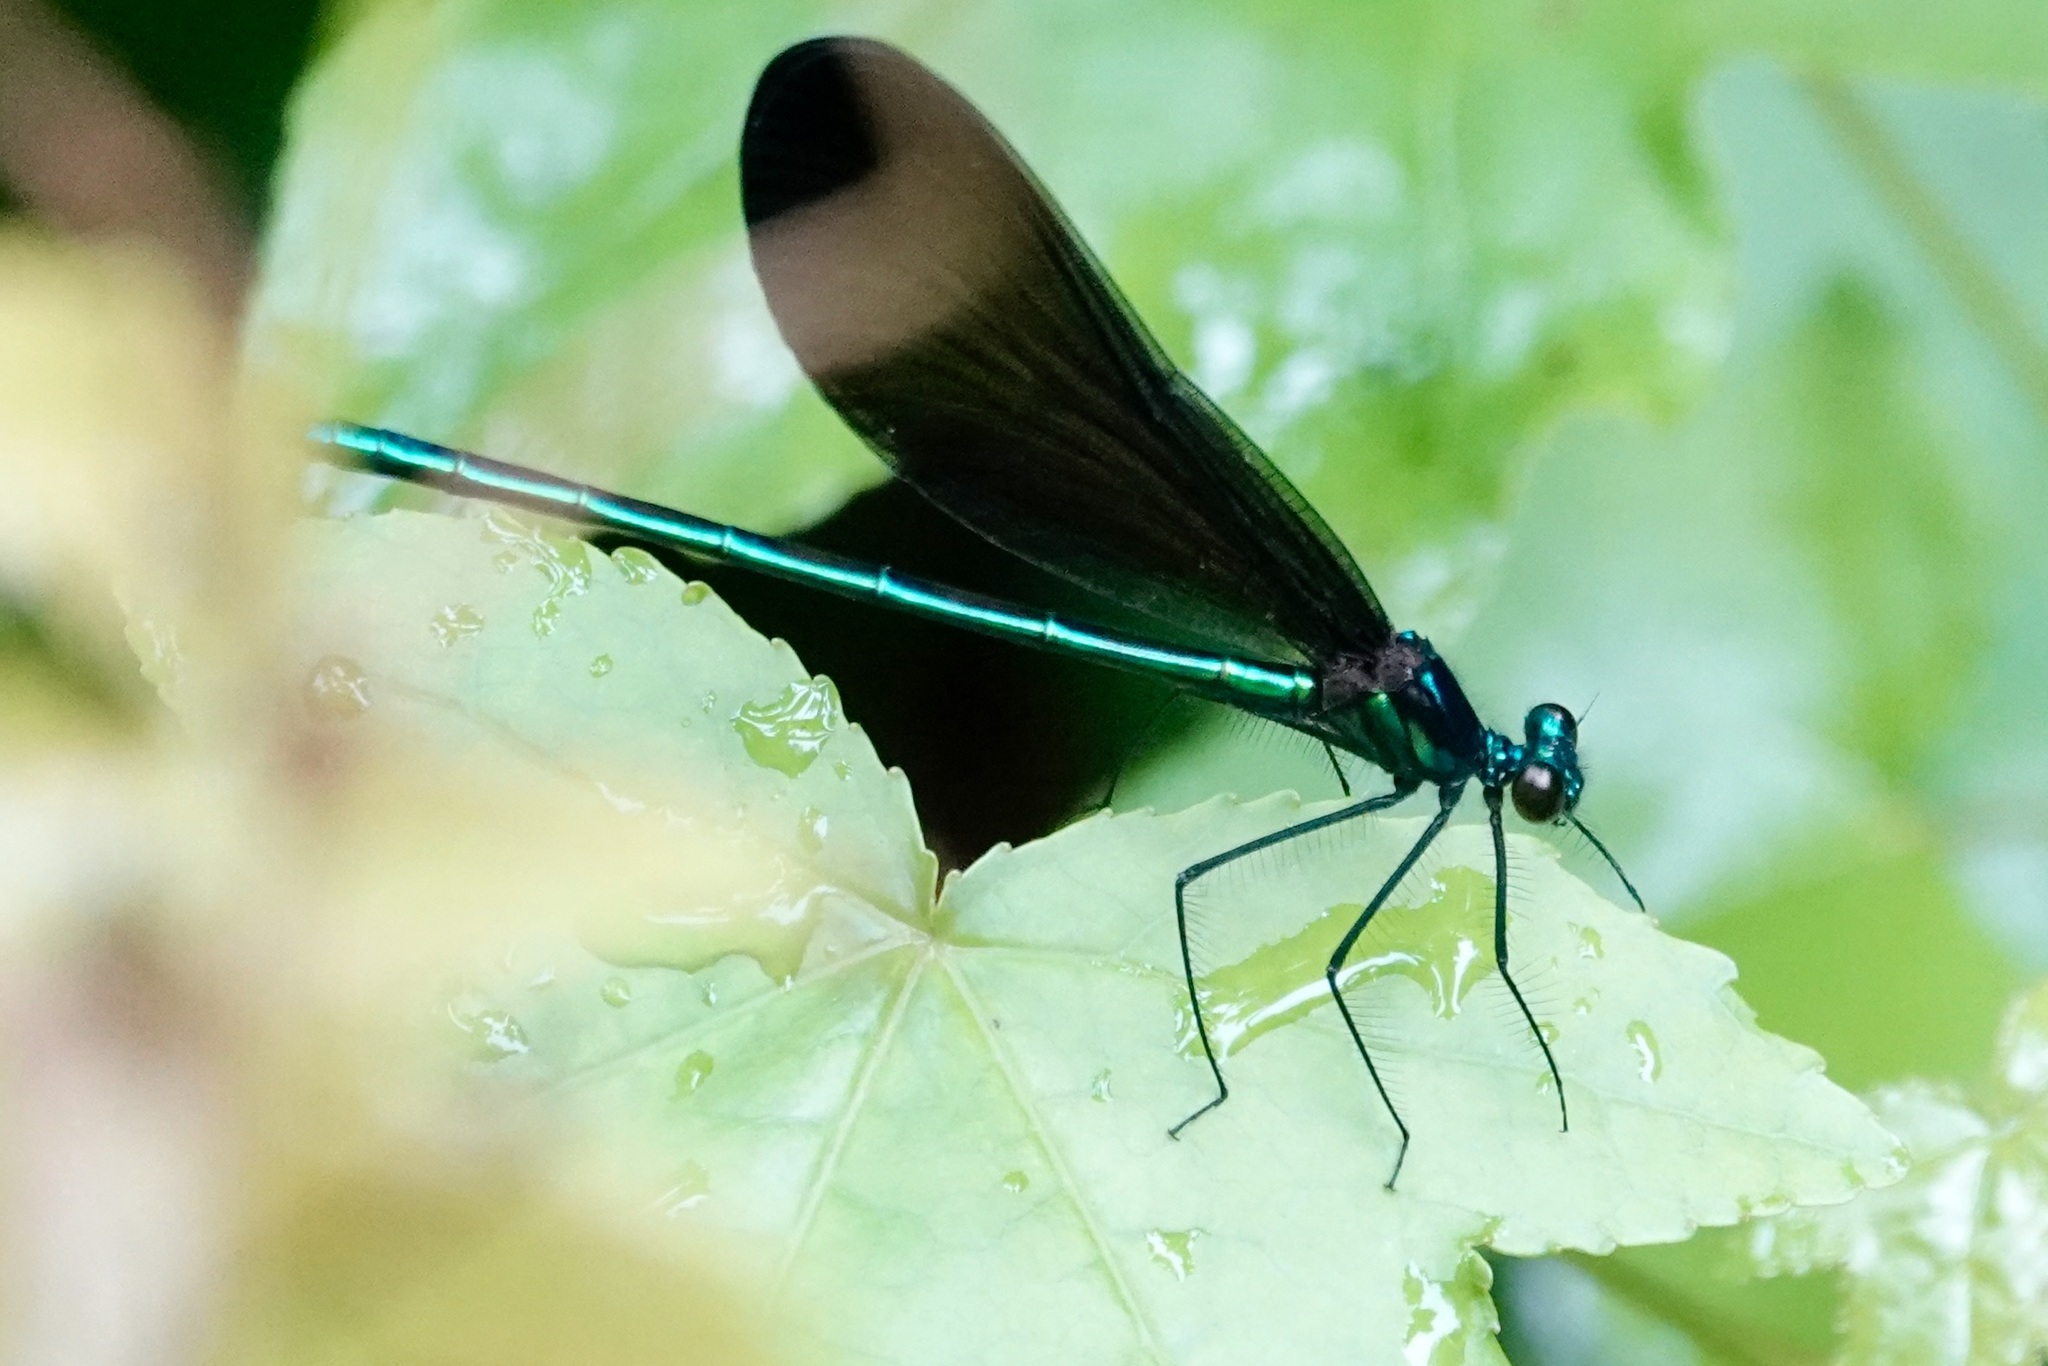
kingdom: Animalia
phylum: Arthropoda
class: Insecta
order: Odonata
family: Calopterygidae
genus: Calopteryx
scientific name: Calopteryx maculata
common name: Ebony jewelwing
